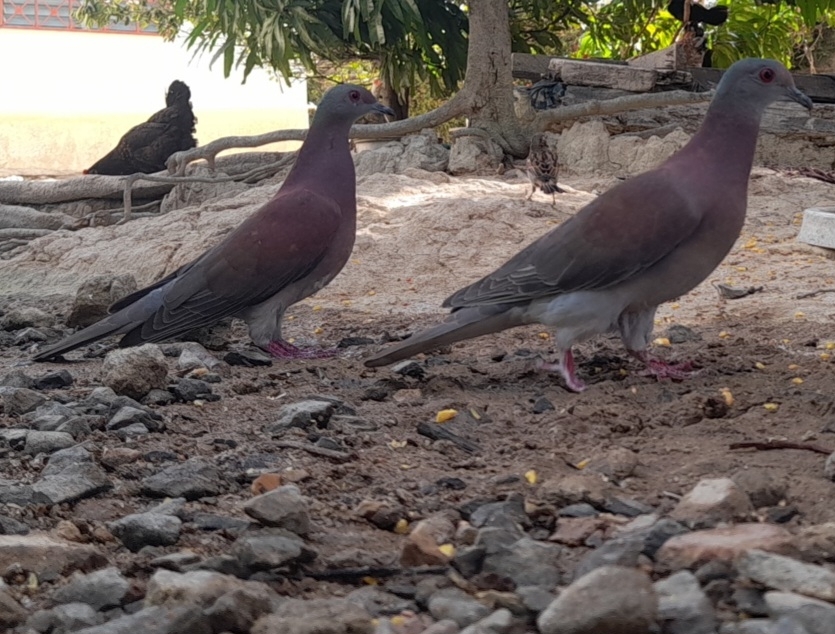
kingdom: Animalia
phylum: Chordata
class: Aves
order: Columbiformes
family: Columbidae
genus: Patagioenas
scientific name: Patagioenas cayennensis
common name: Pale-vented pigeon
